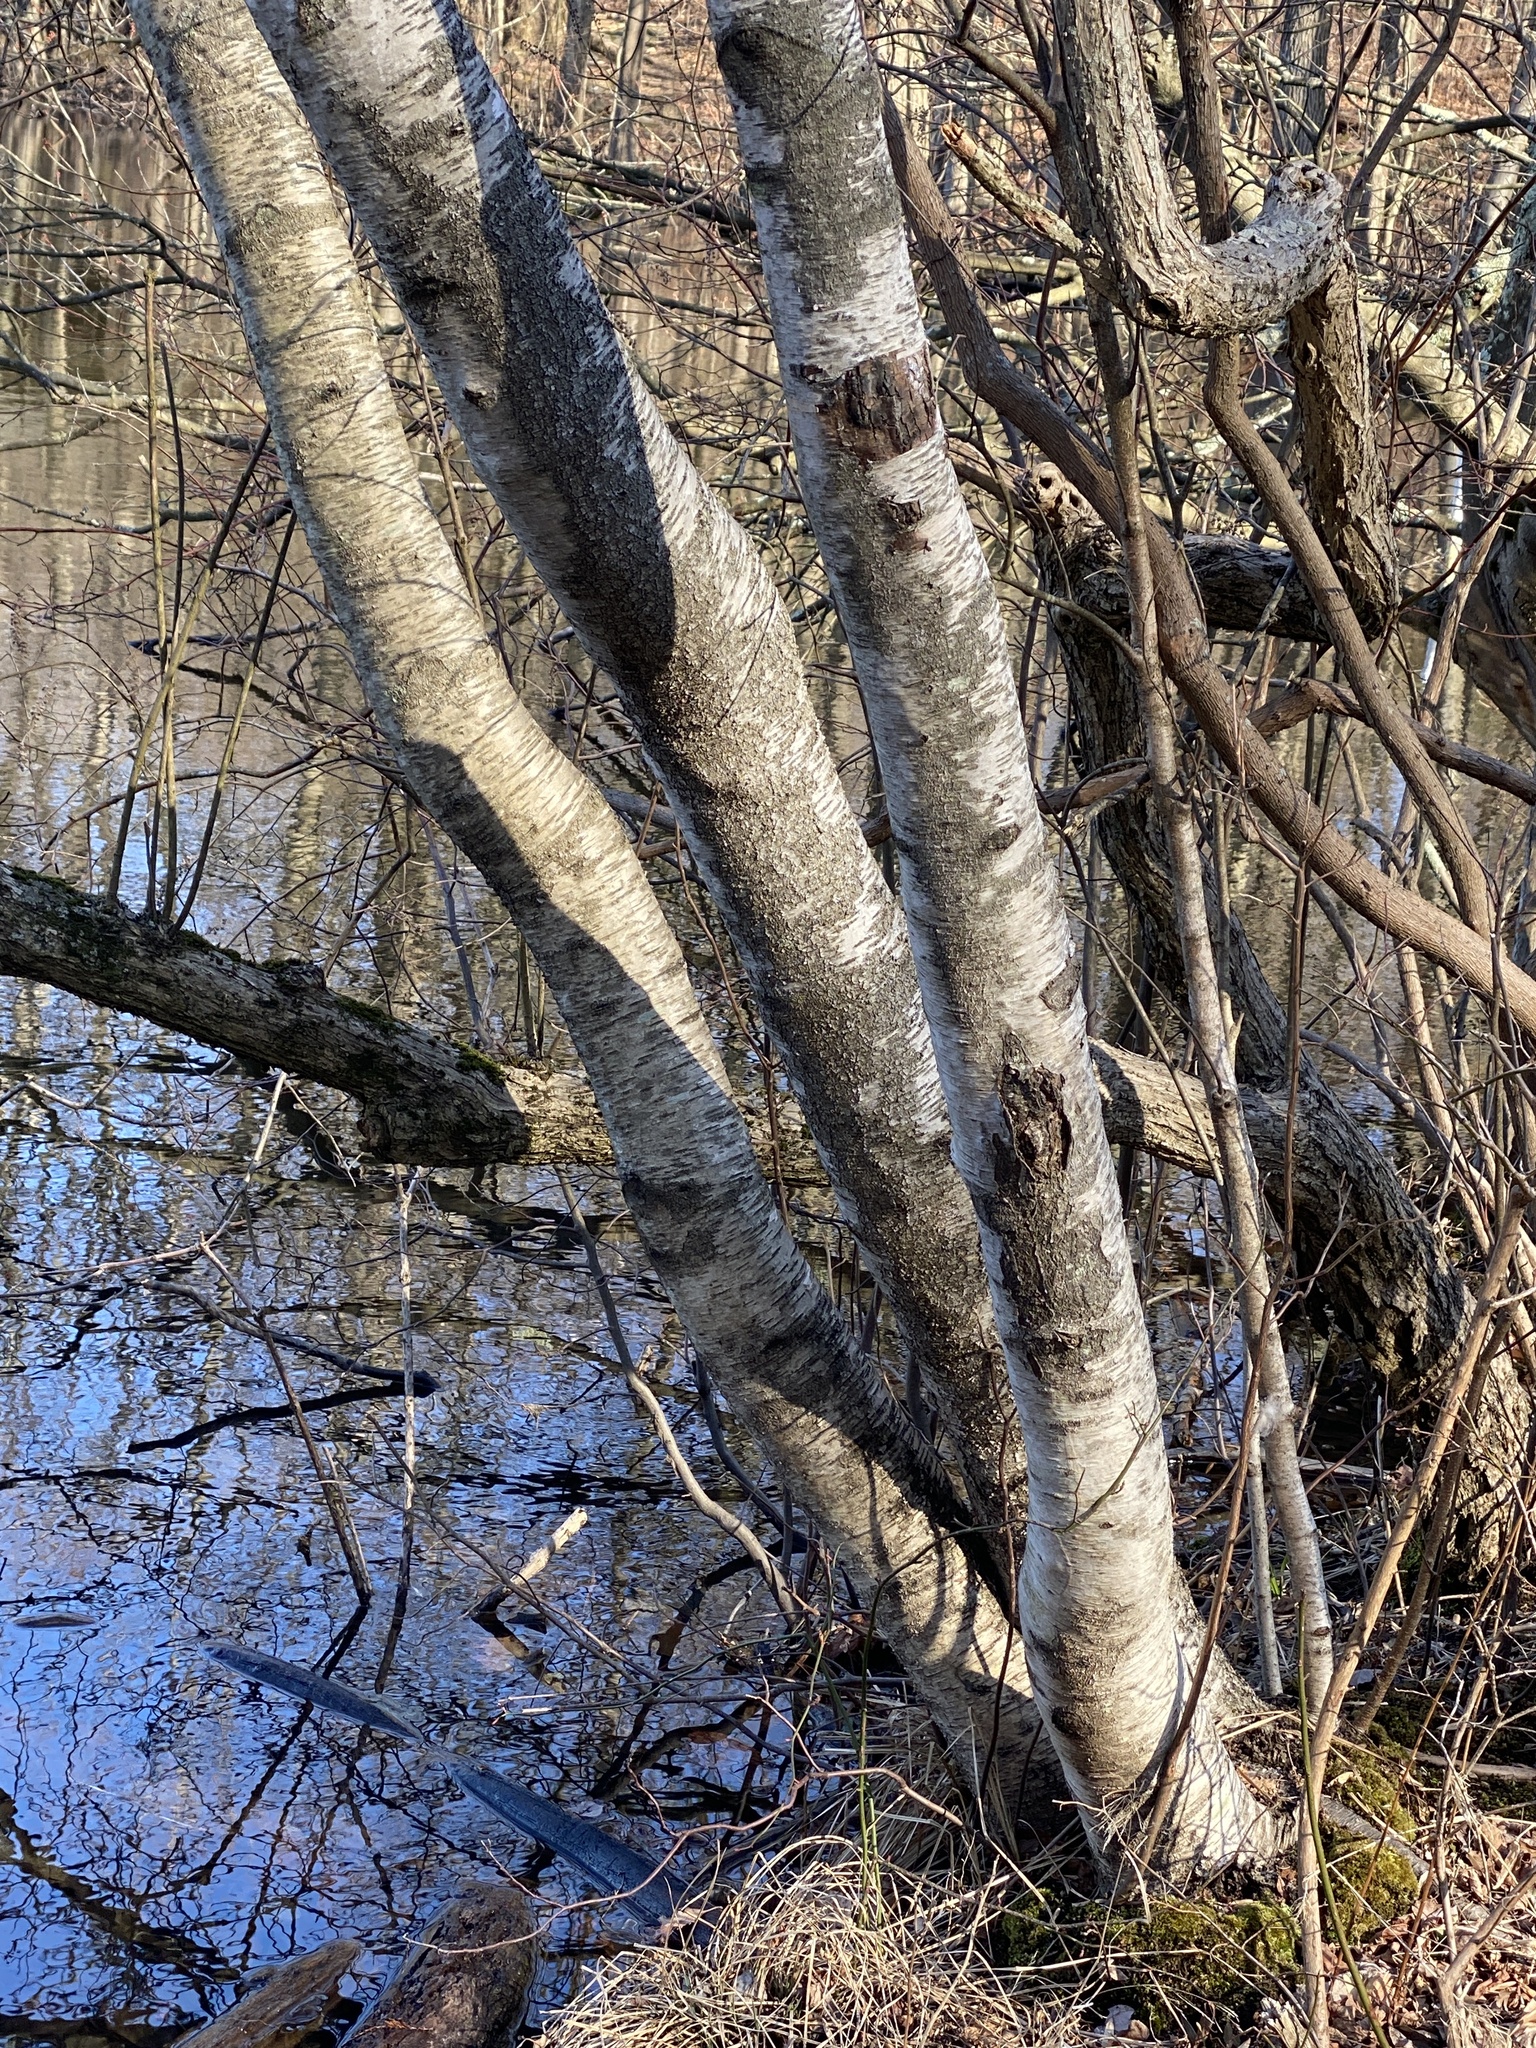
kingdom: Plantae
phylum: Tracheophyta
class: Magnoliopsida
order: Fagales
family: Betulaceae
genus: Betula
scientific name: Betula populifolia
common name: Fire birch
